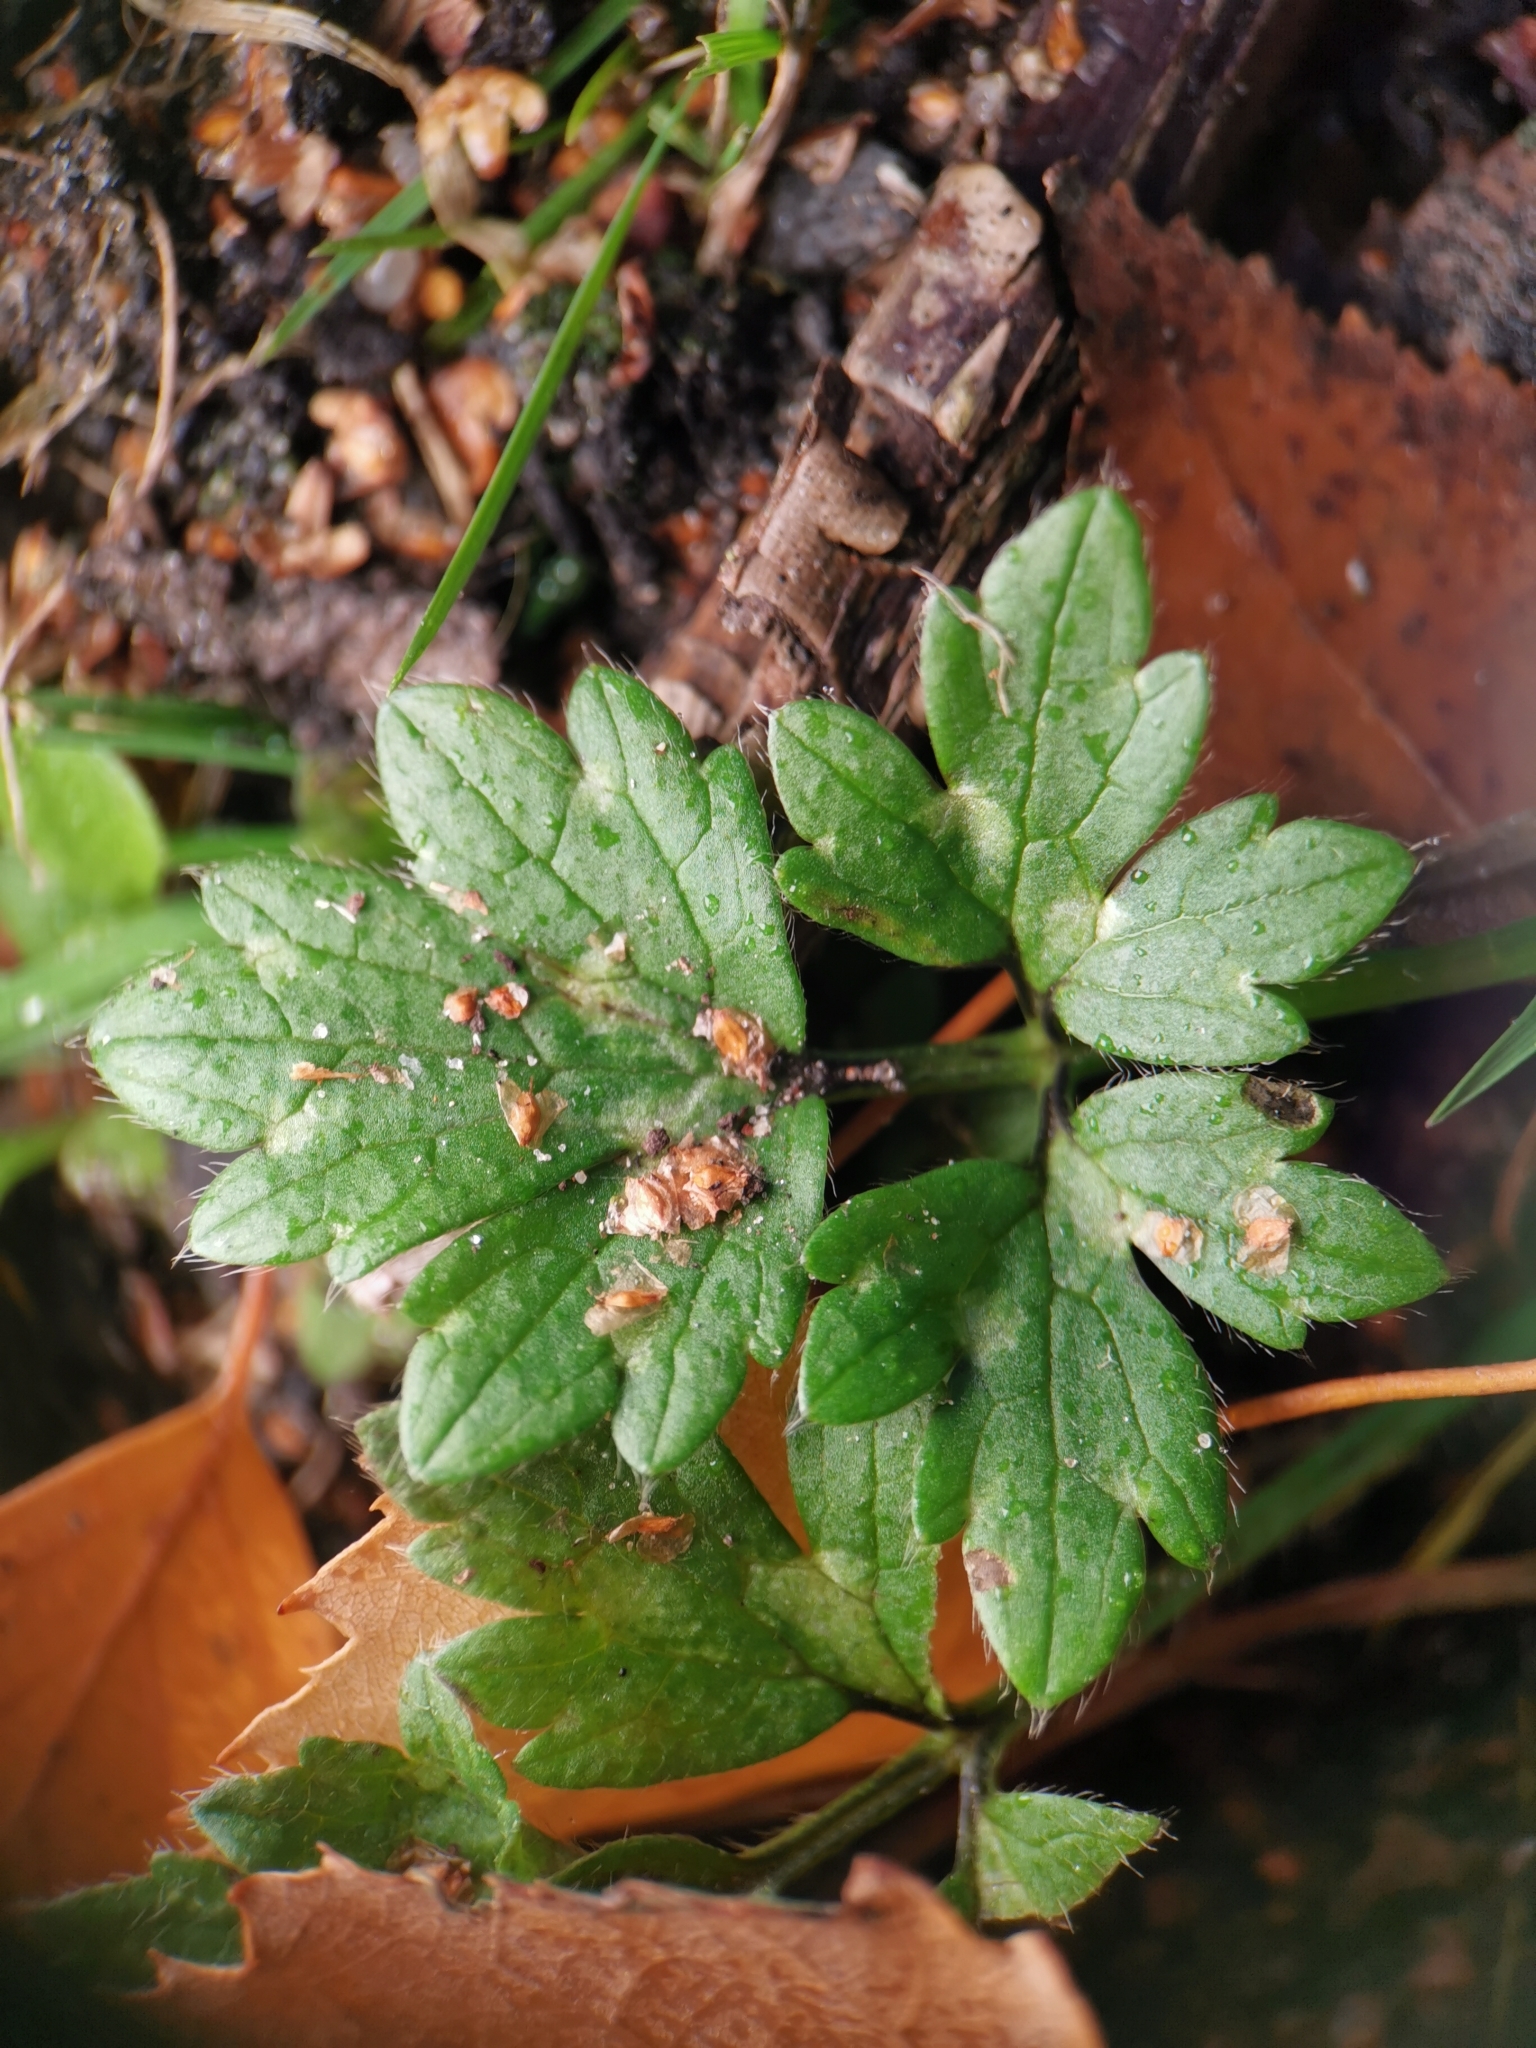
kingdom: Plantae
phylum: Tracheophyta
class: Magnoliopsida
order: Ranunculales
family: Ranunculaceae
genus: Ranunculus
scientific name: Ranunculus repens
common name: Creeping buttercup
